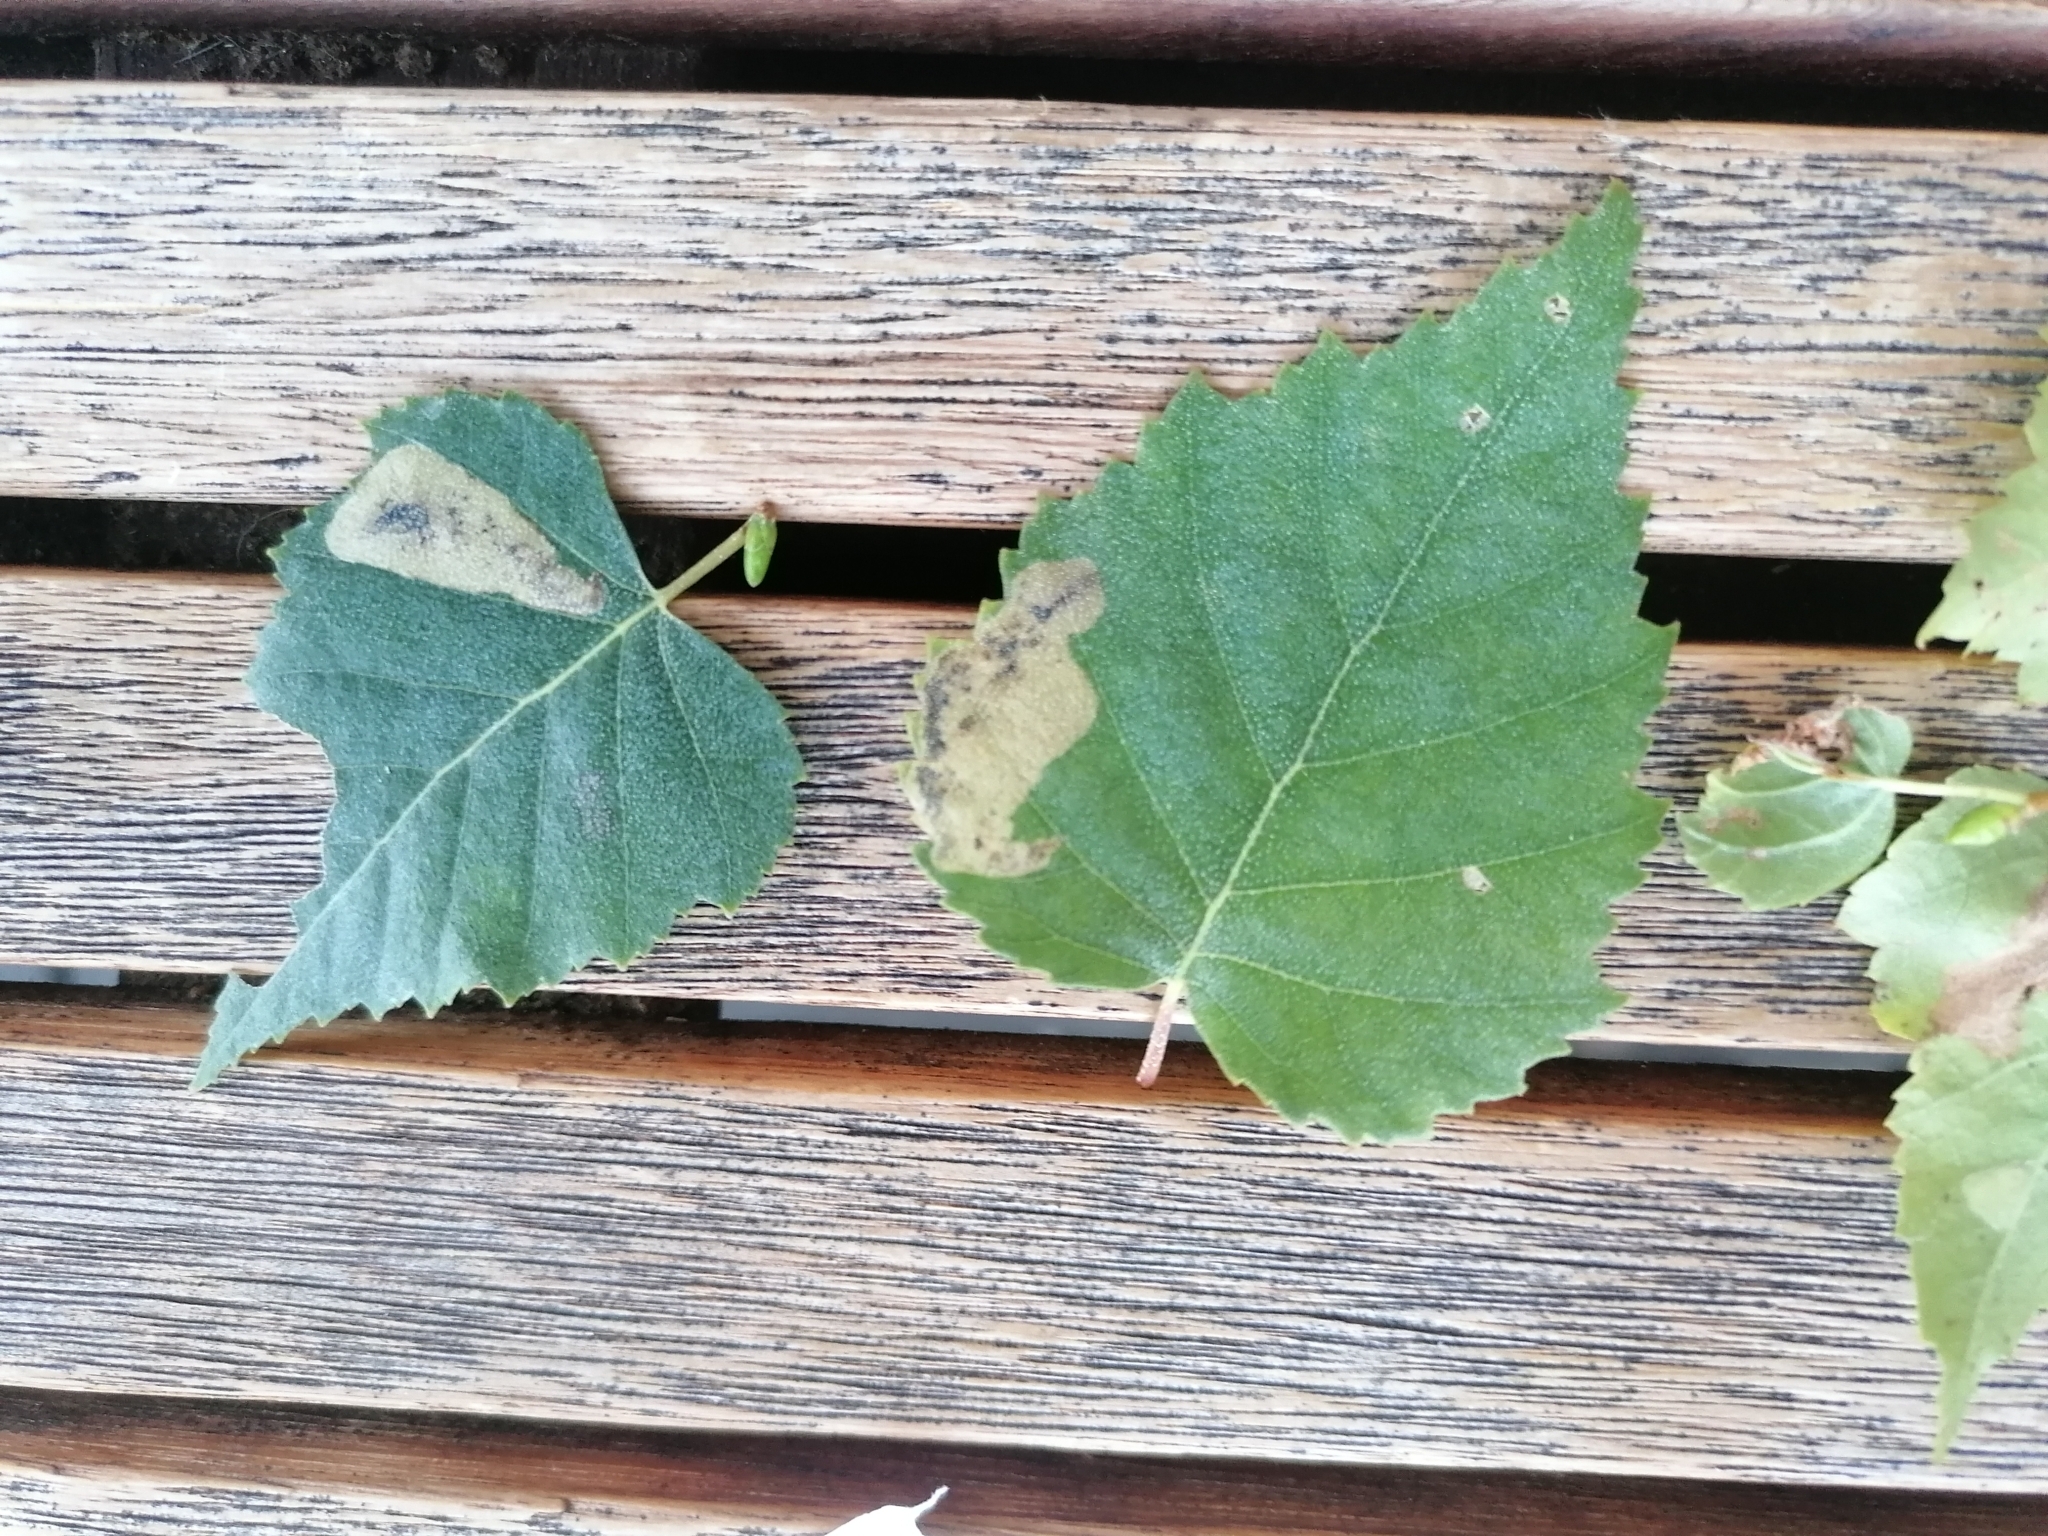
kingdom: Animalia
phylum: Arthropoda
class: Insecta
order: Hymenoptera
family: Tenthredinidae
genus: Profenusa
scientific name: Profenusa thomsoni
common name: Amber-marked birch leafminer
